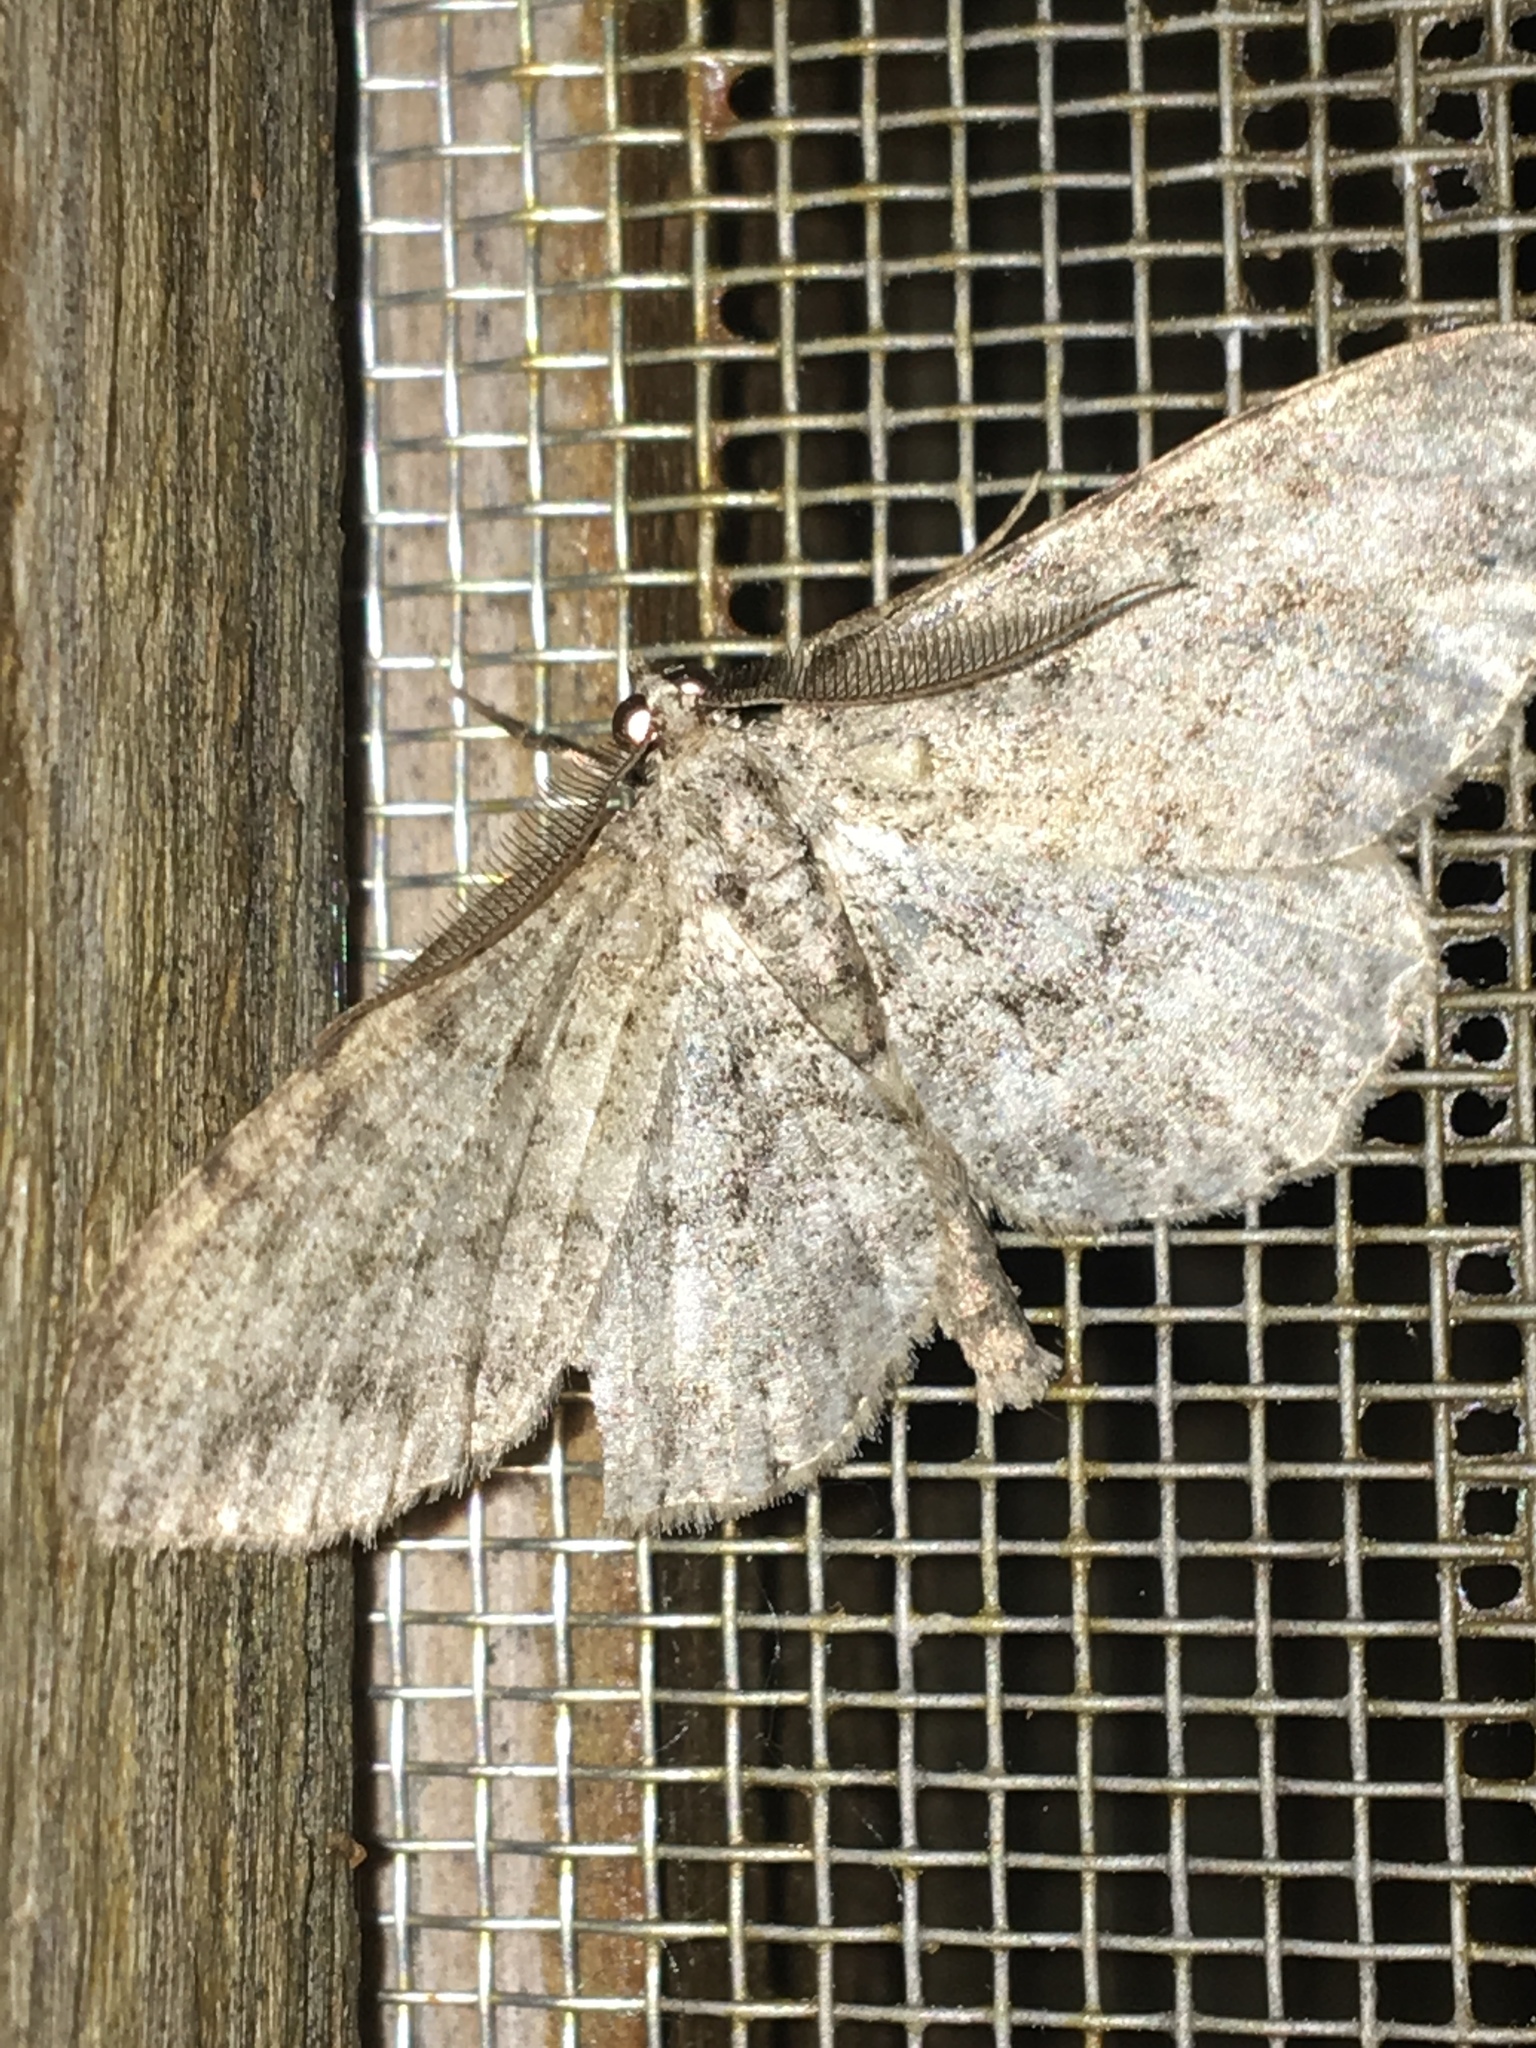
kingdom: Animalia
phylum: Arthropoda
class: Insecta
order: Lepidoptera
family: Geometridae
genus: Protoboarmia
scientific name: Protoboarmia porcelaria
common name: Porcelain gray
